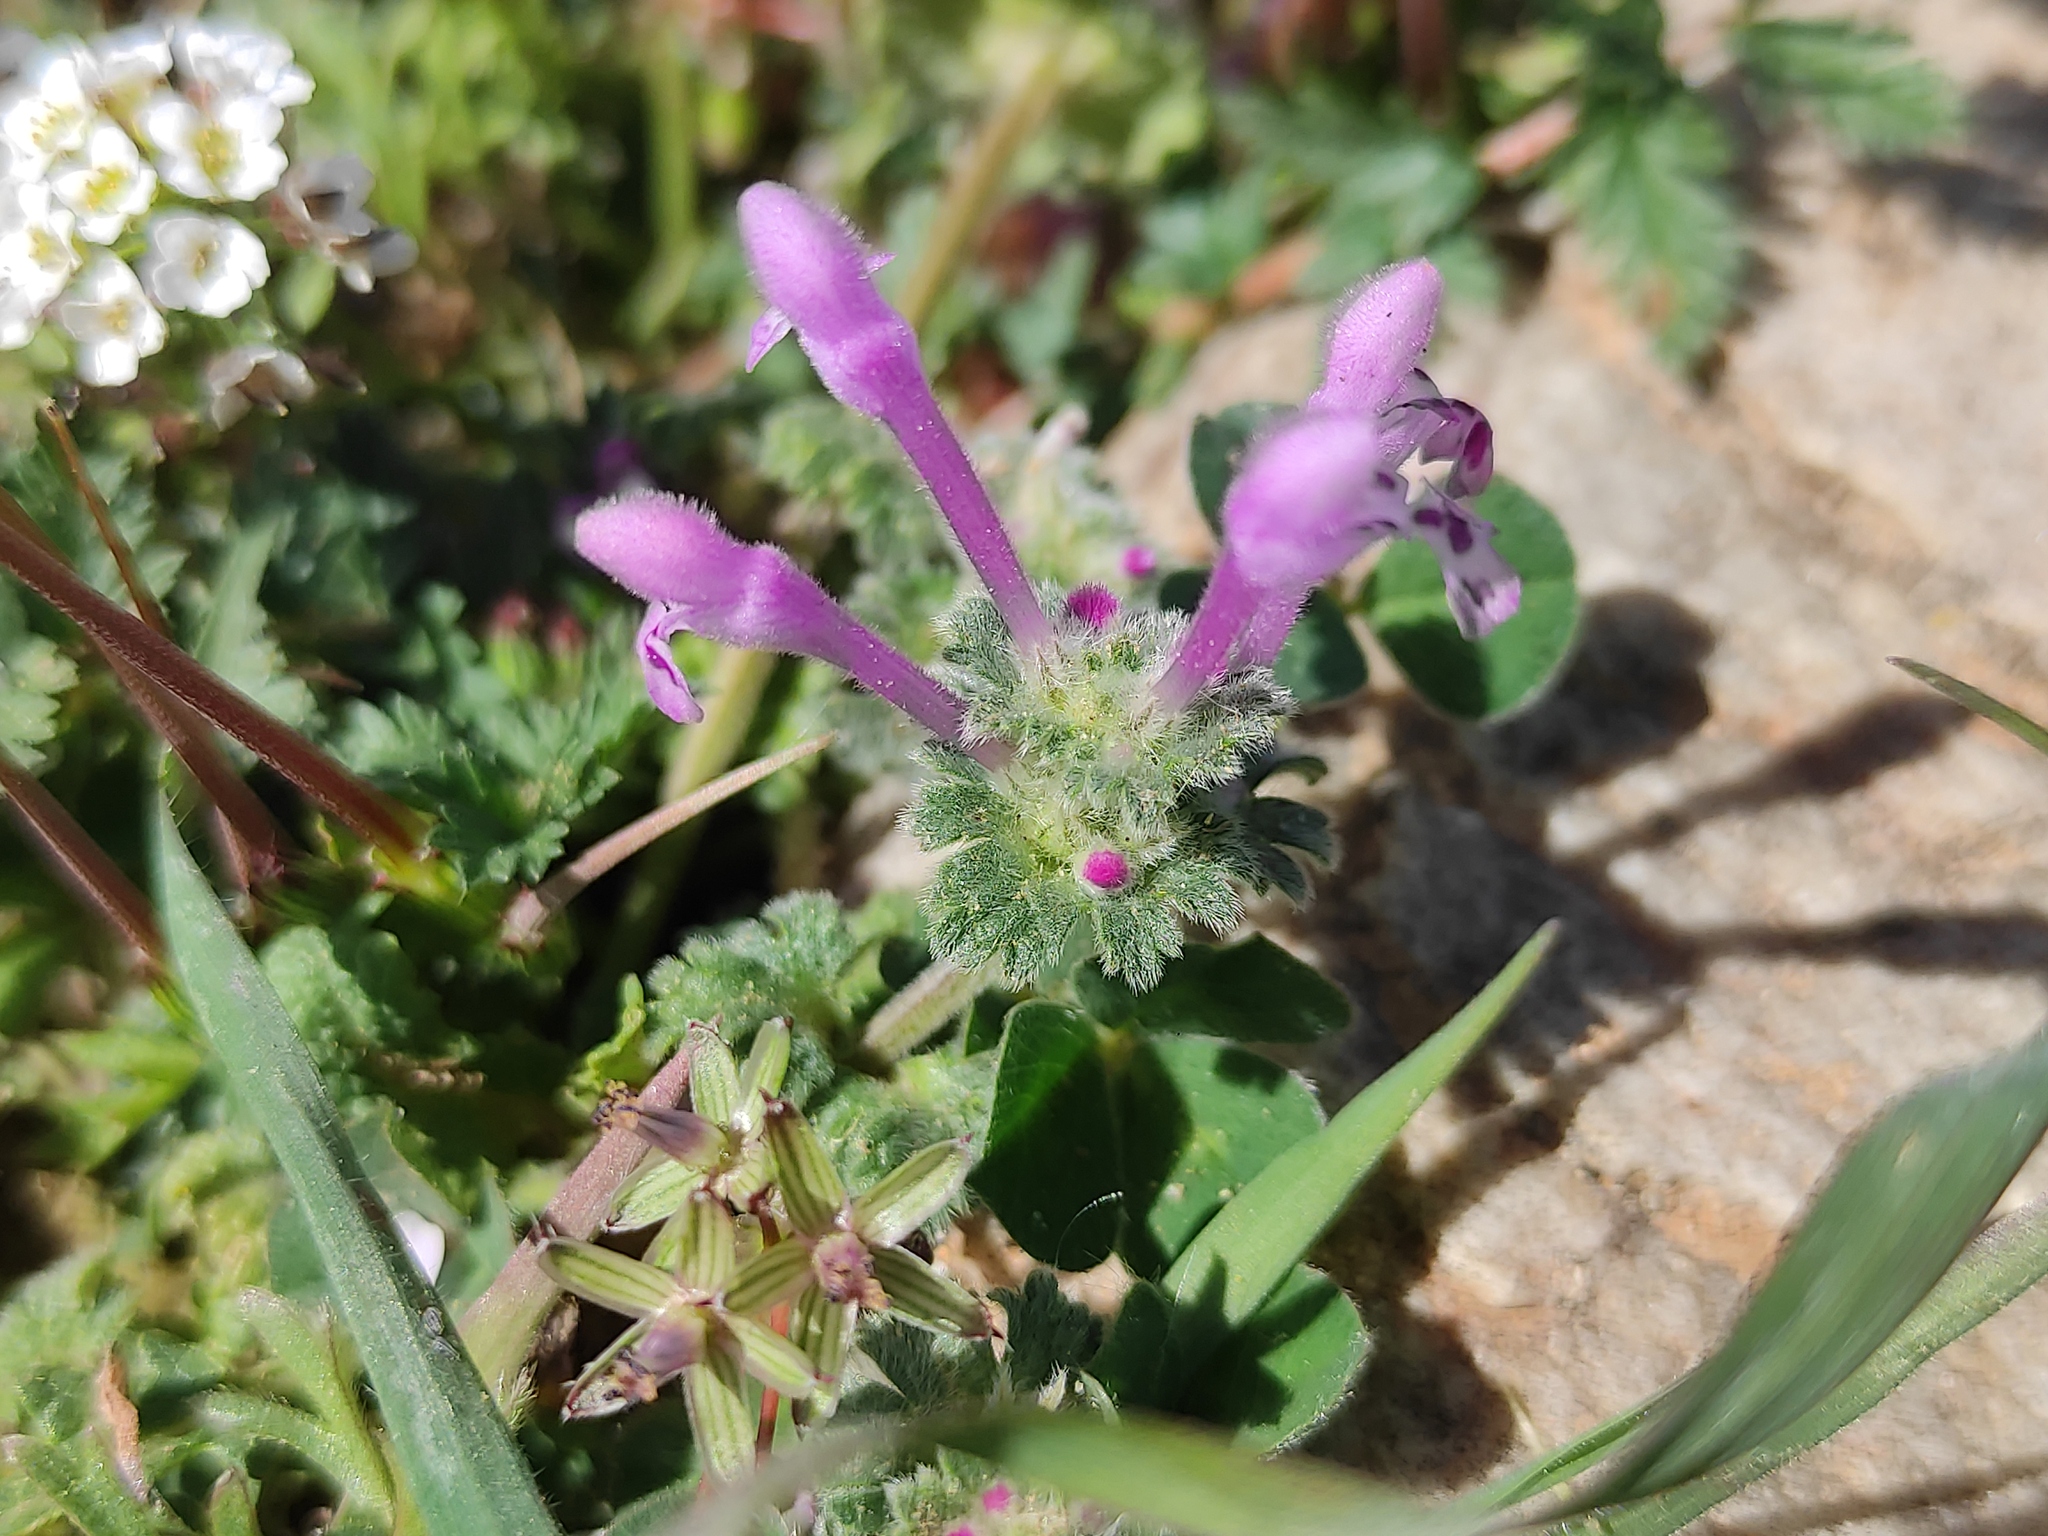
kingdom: Plantae
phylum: Tracheophyta
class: Magnoliopsida
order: Lamiales
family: Lamiaceae
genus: Lamium
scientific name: Lamium amplexicaule
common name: Henbit dead-nettle
